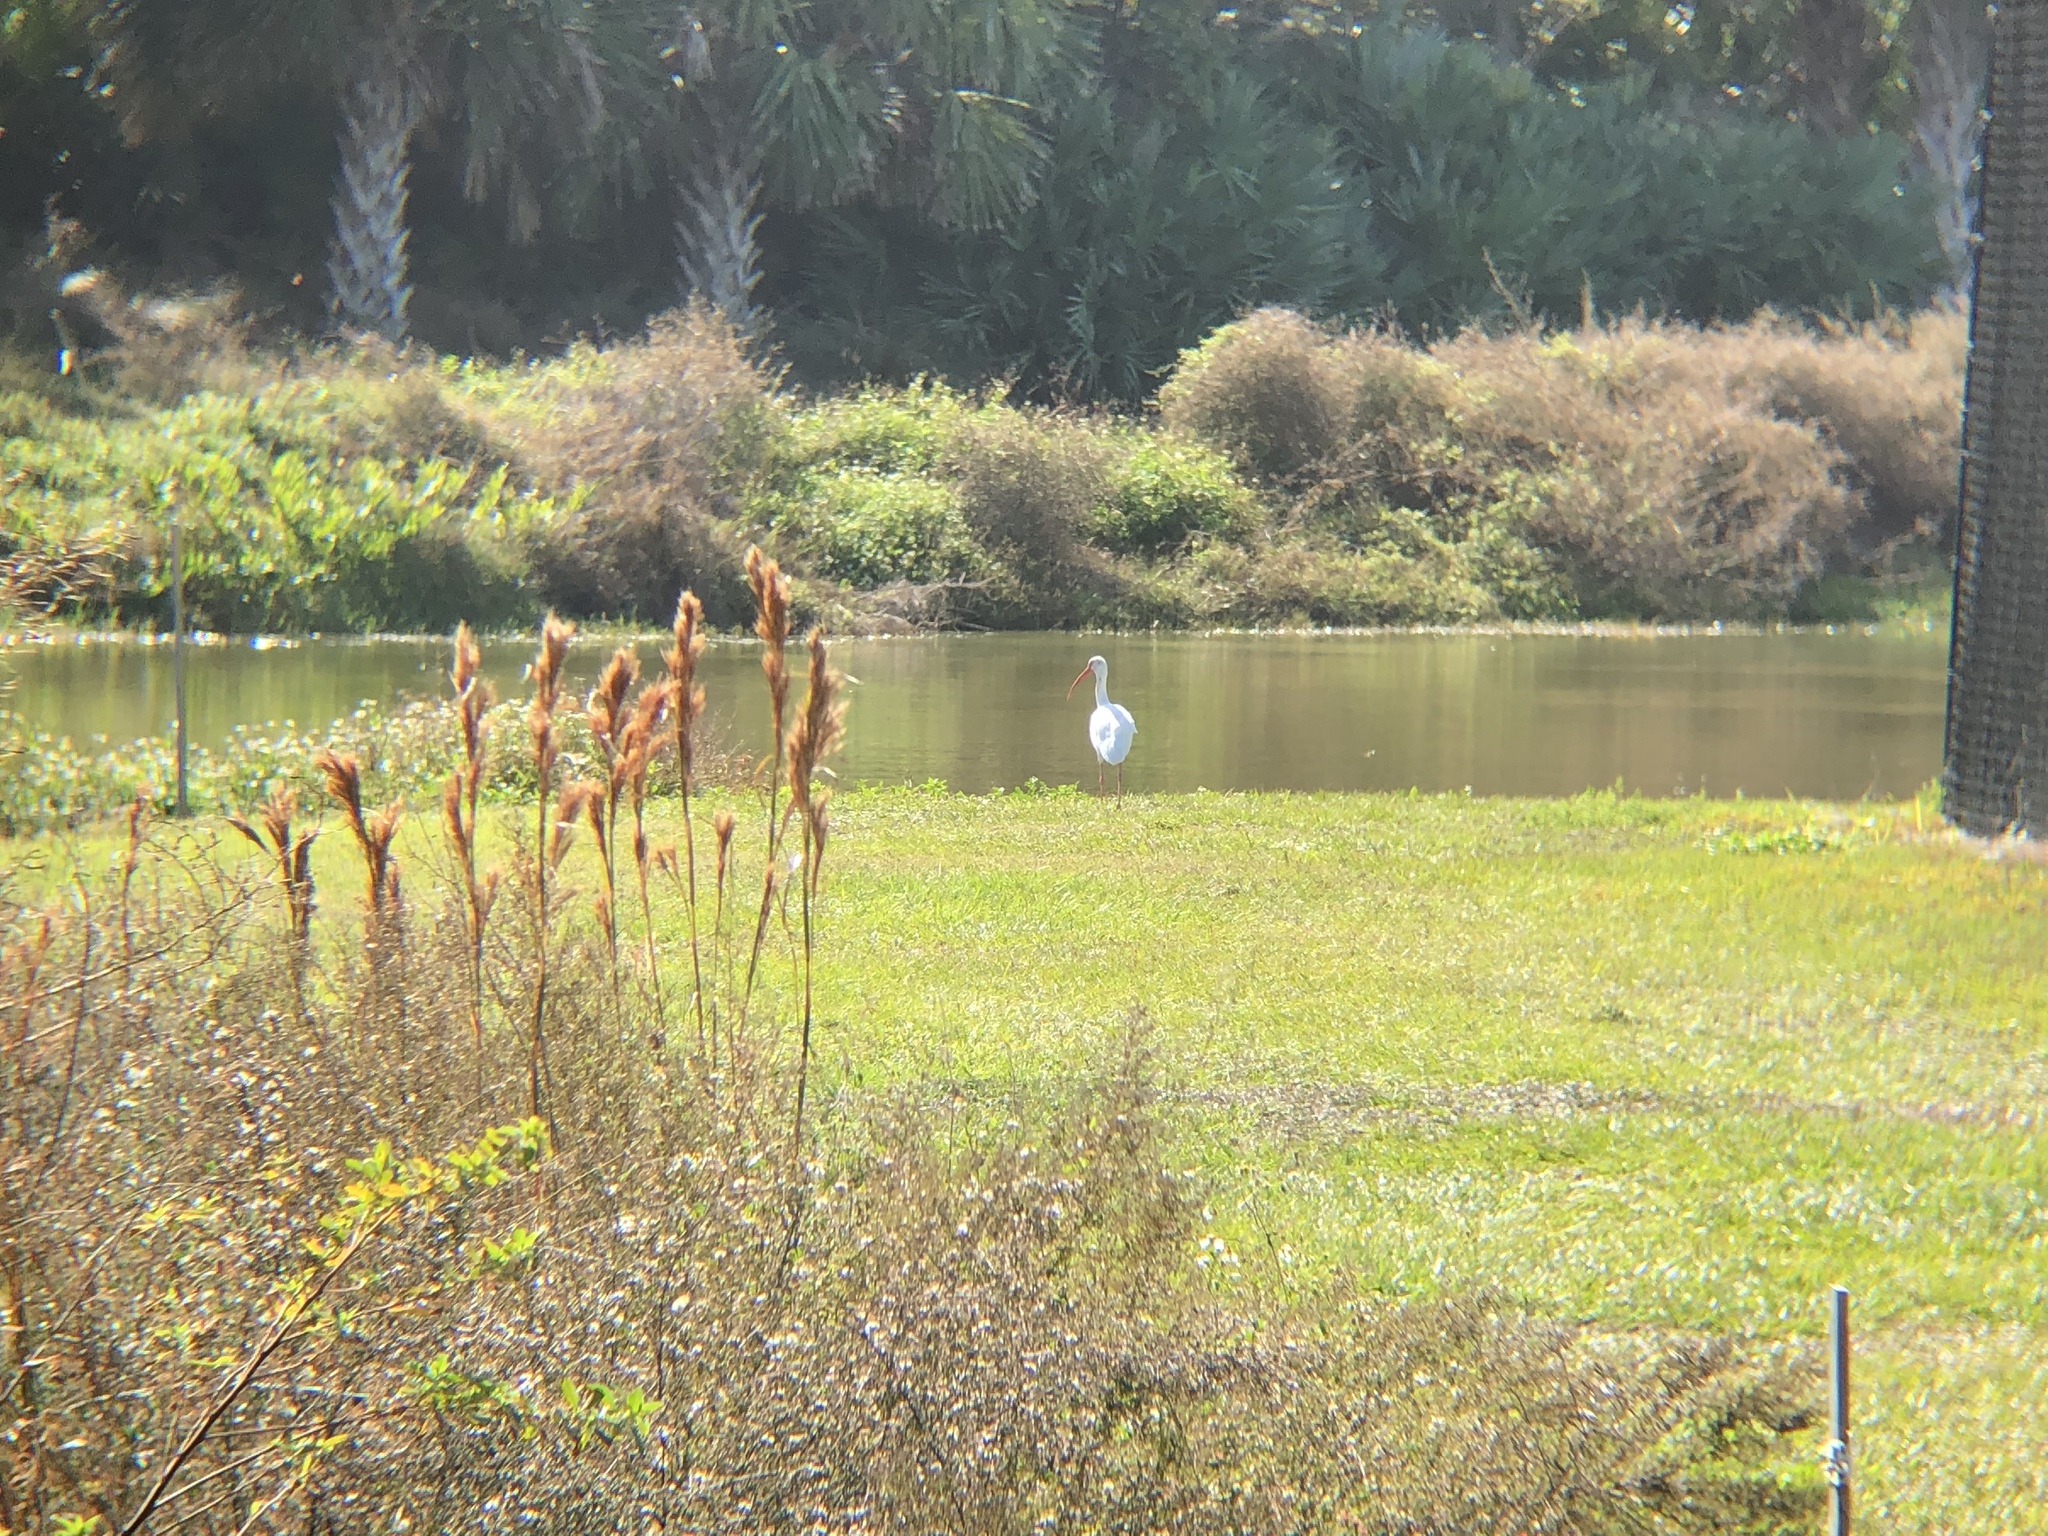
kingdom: Animalia
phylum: Chordata
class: Aves
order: Pelecaniformes
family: Threskiornithidae
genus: Eudocimus
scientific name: Eudocimus albus
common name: White ibis
